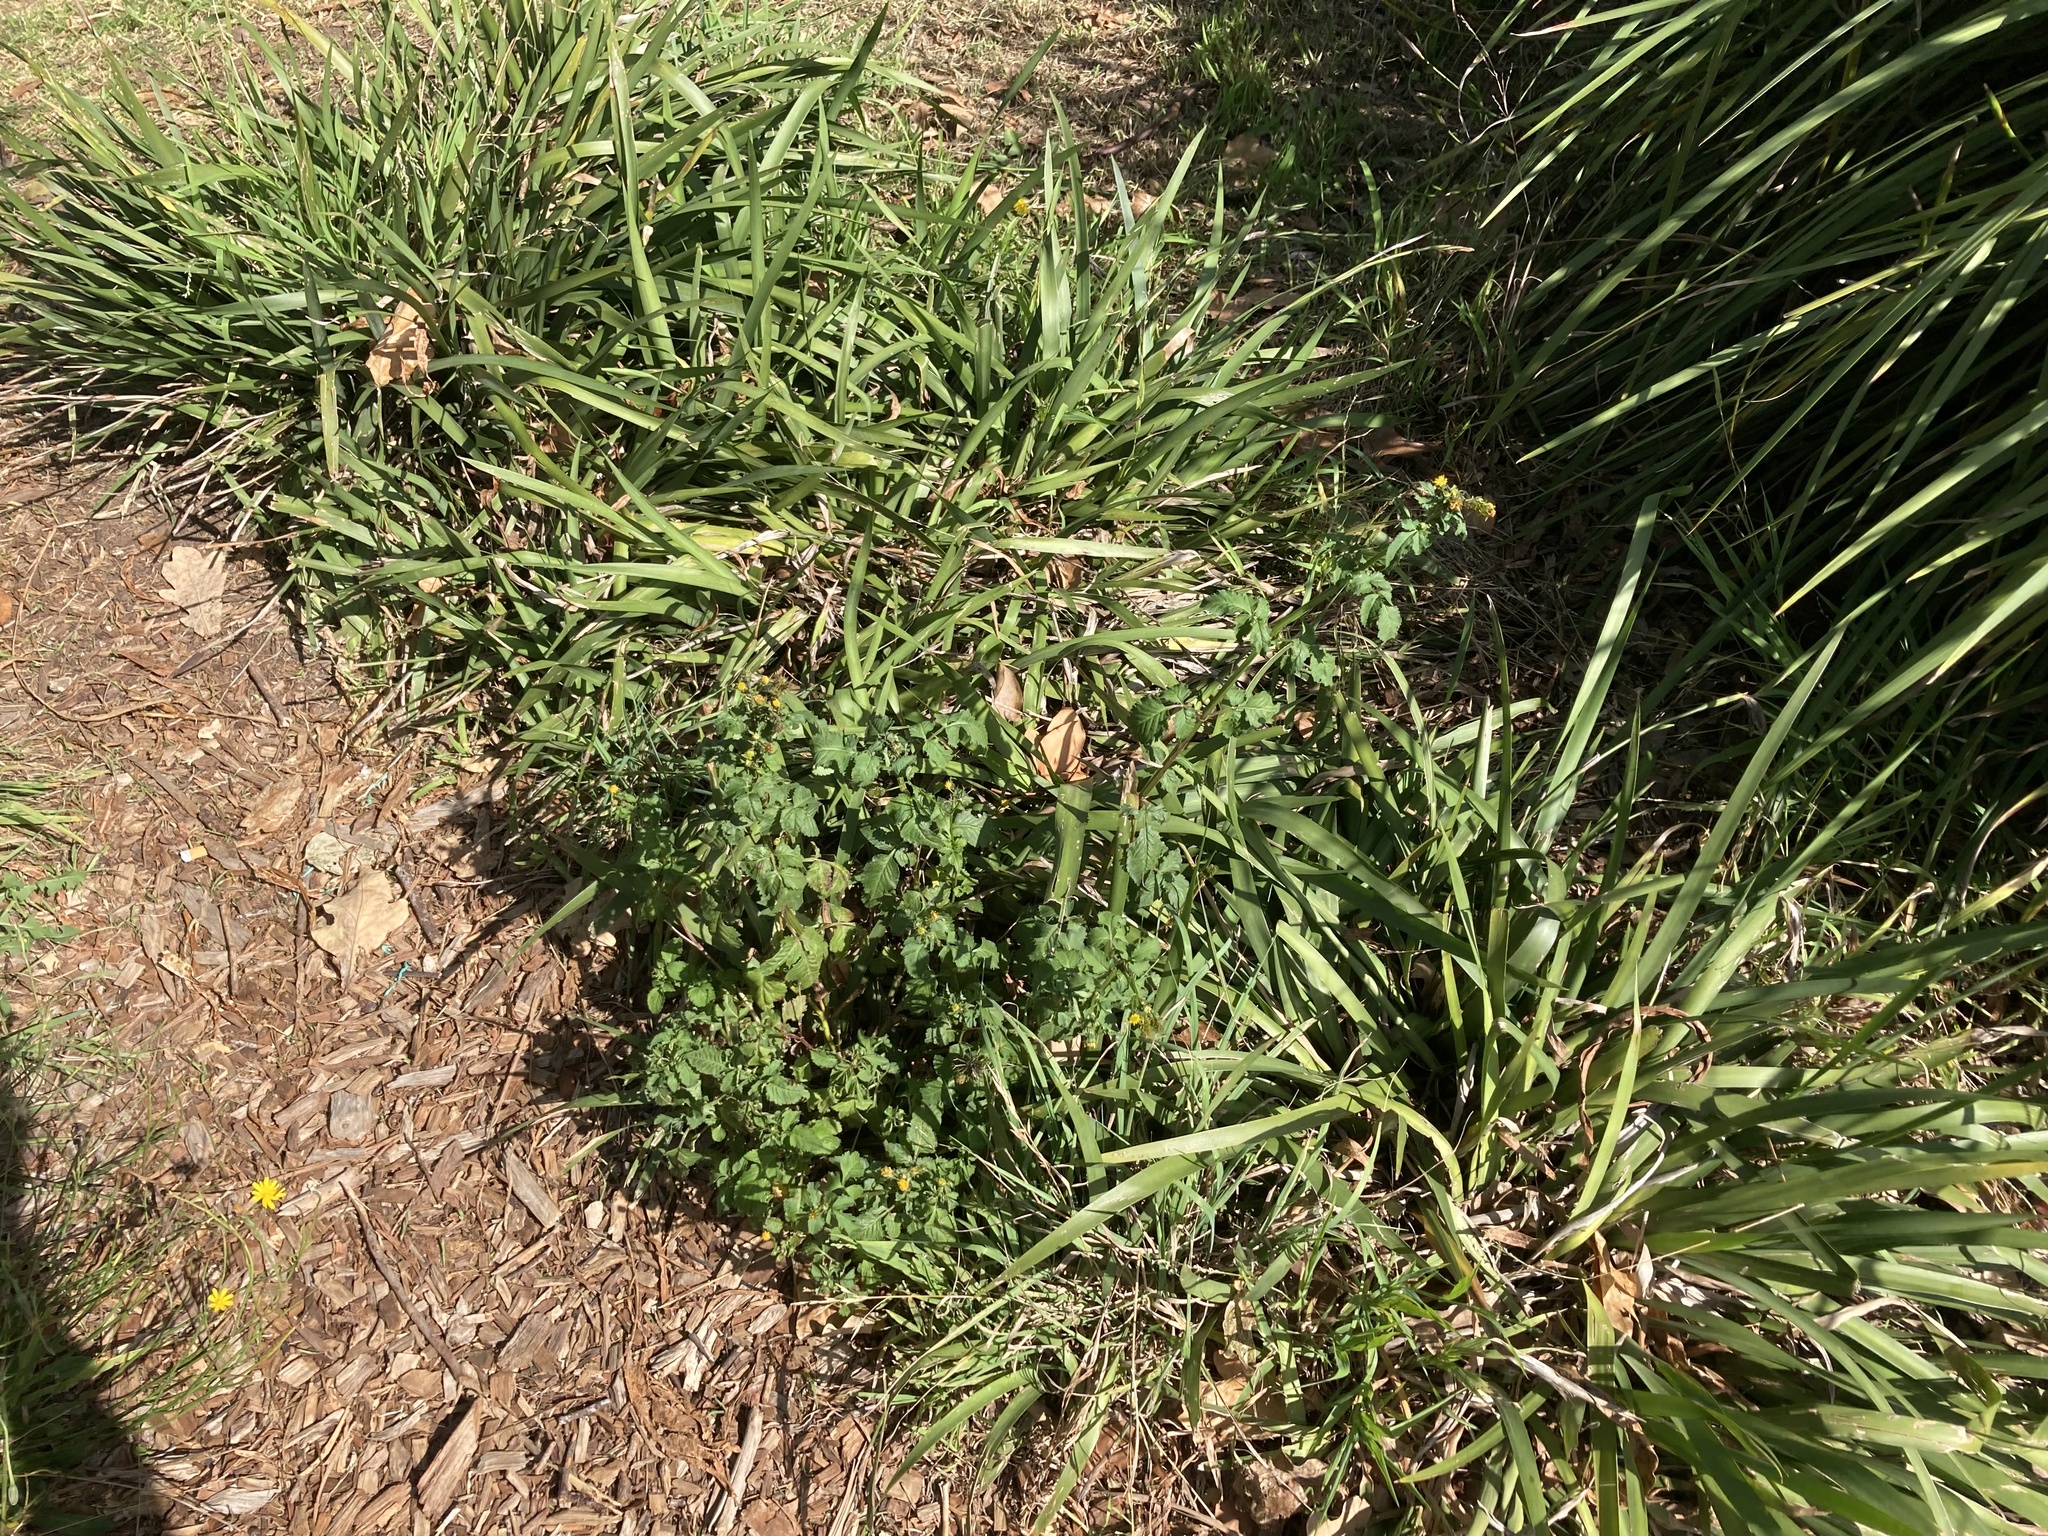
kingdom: Plantae
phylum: Tracheophyta
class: Magnoliopsida
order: Asterales
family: Asteraceae
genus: Bidens
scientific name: Bidens pilosa
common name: Black-jack
